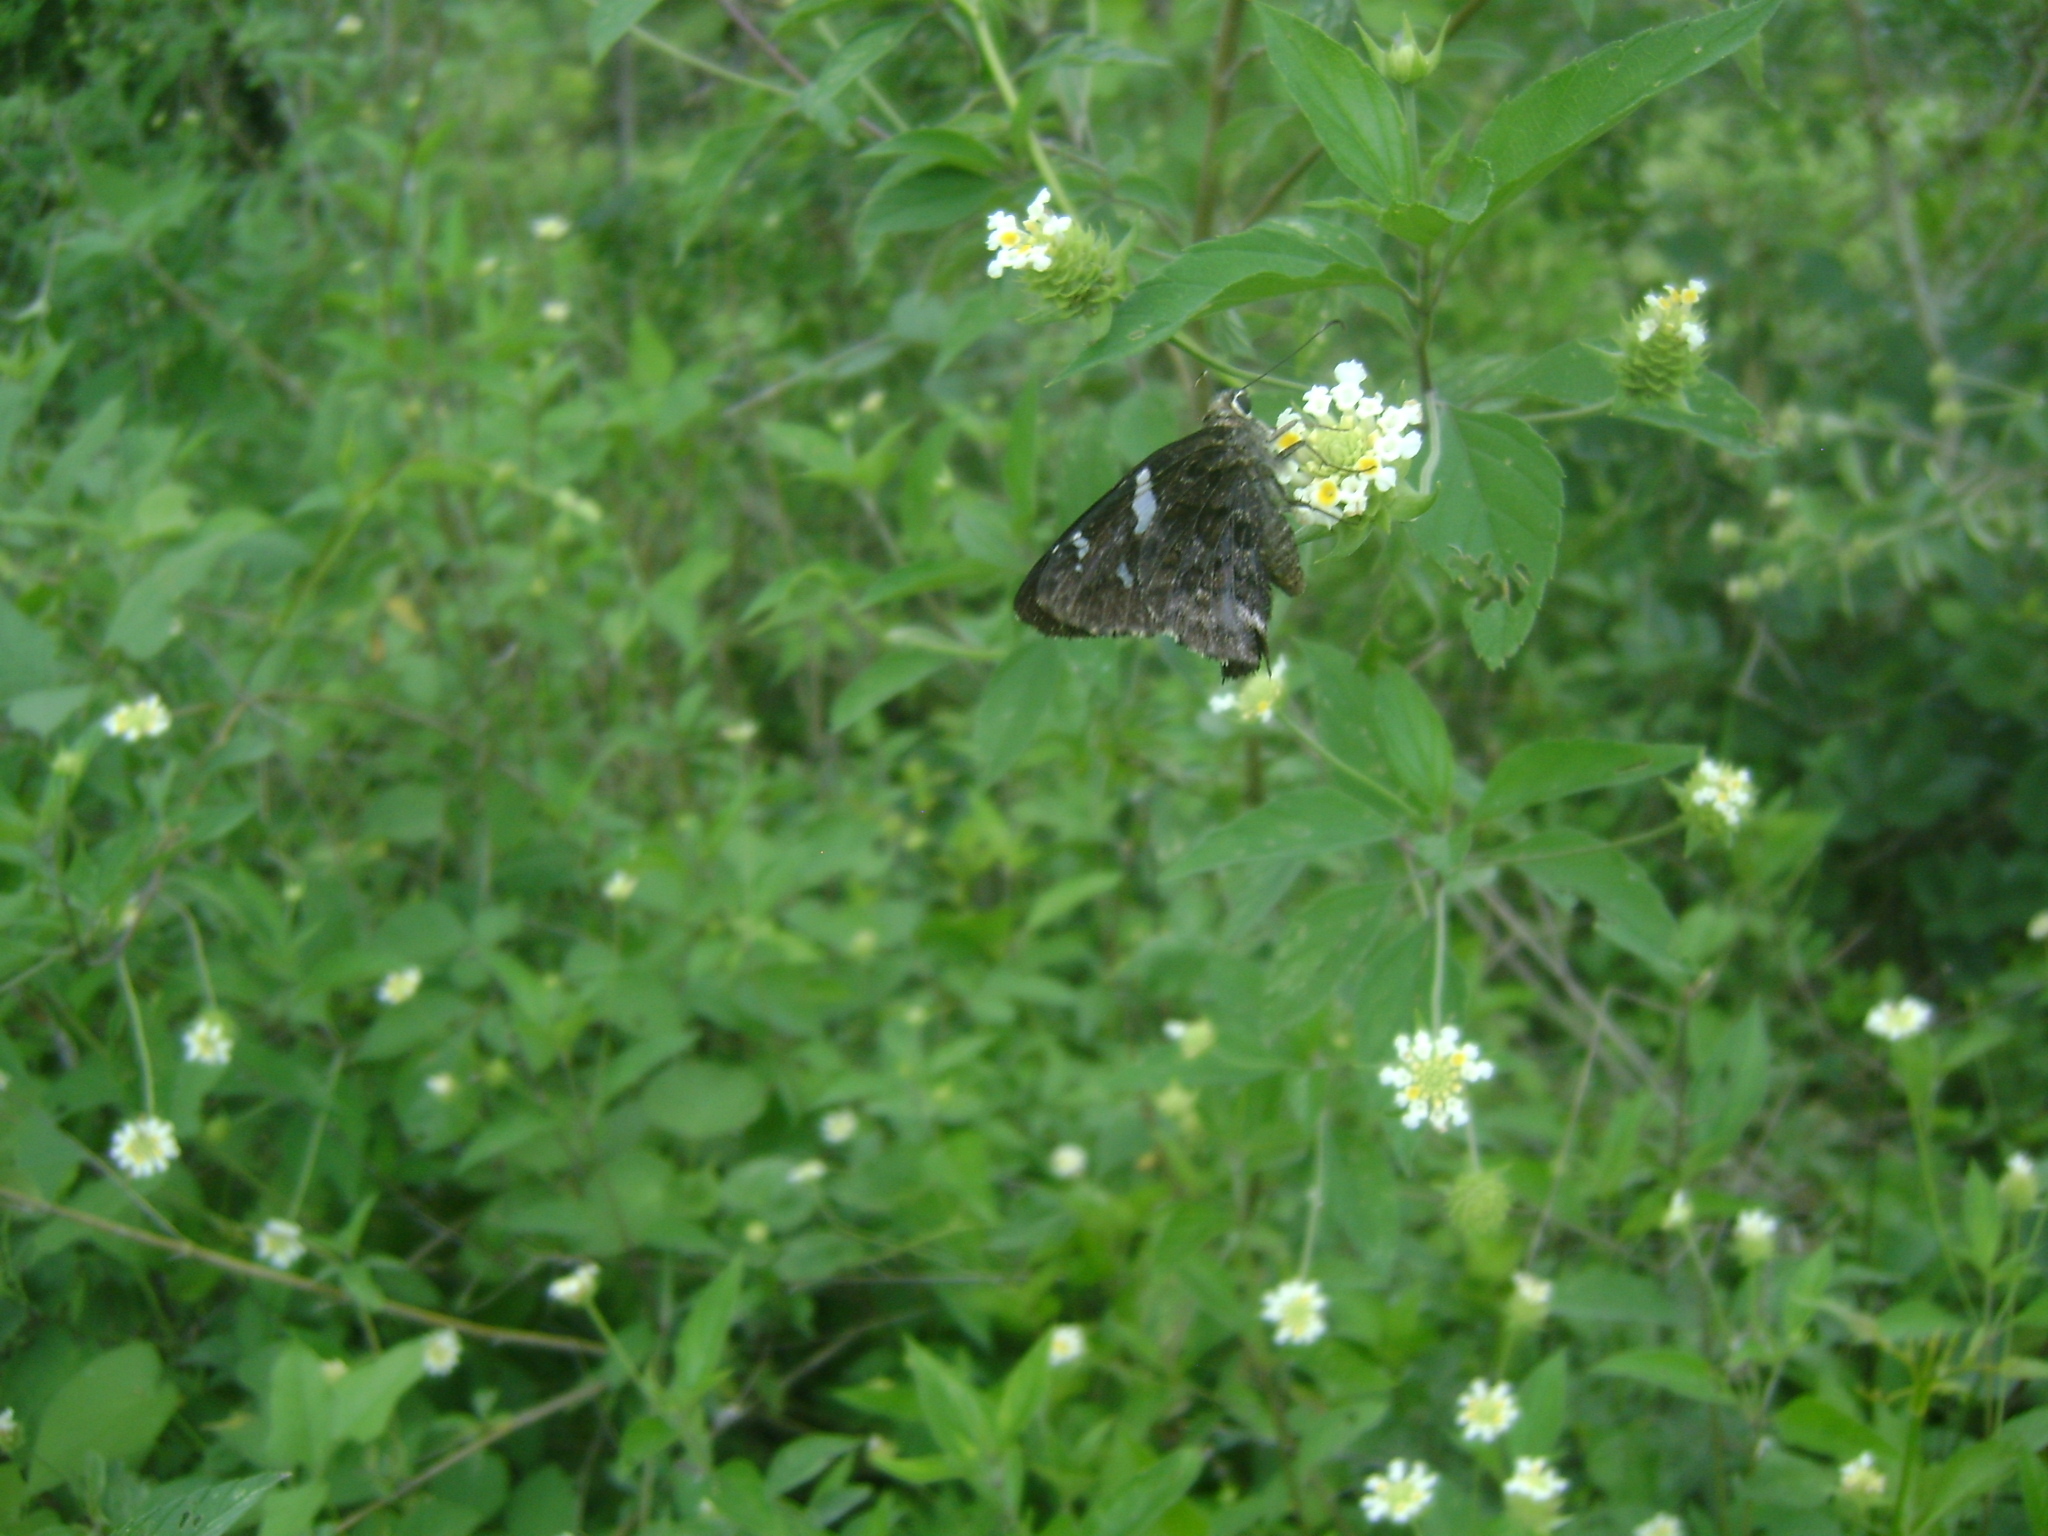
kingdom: Animalia
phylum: Arthropoda
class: Insecta
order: Lepidoptera
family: Hesperiidae
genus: Cogia
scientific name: Cogia hippalus
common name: Acacia skipper
